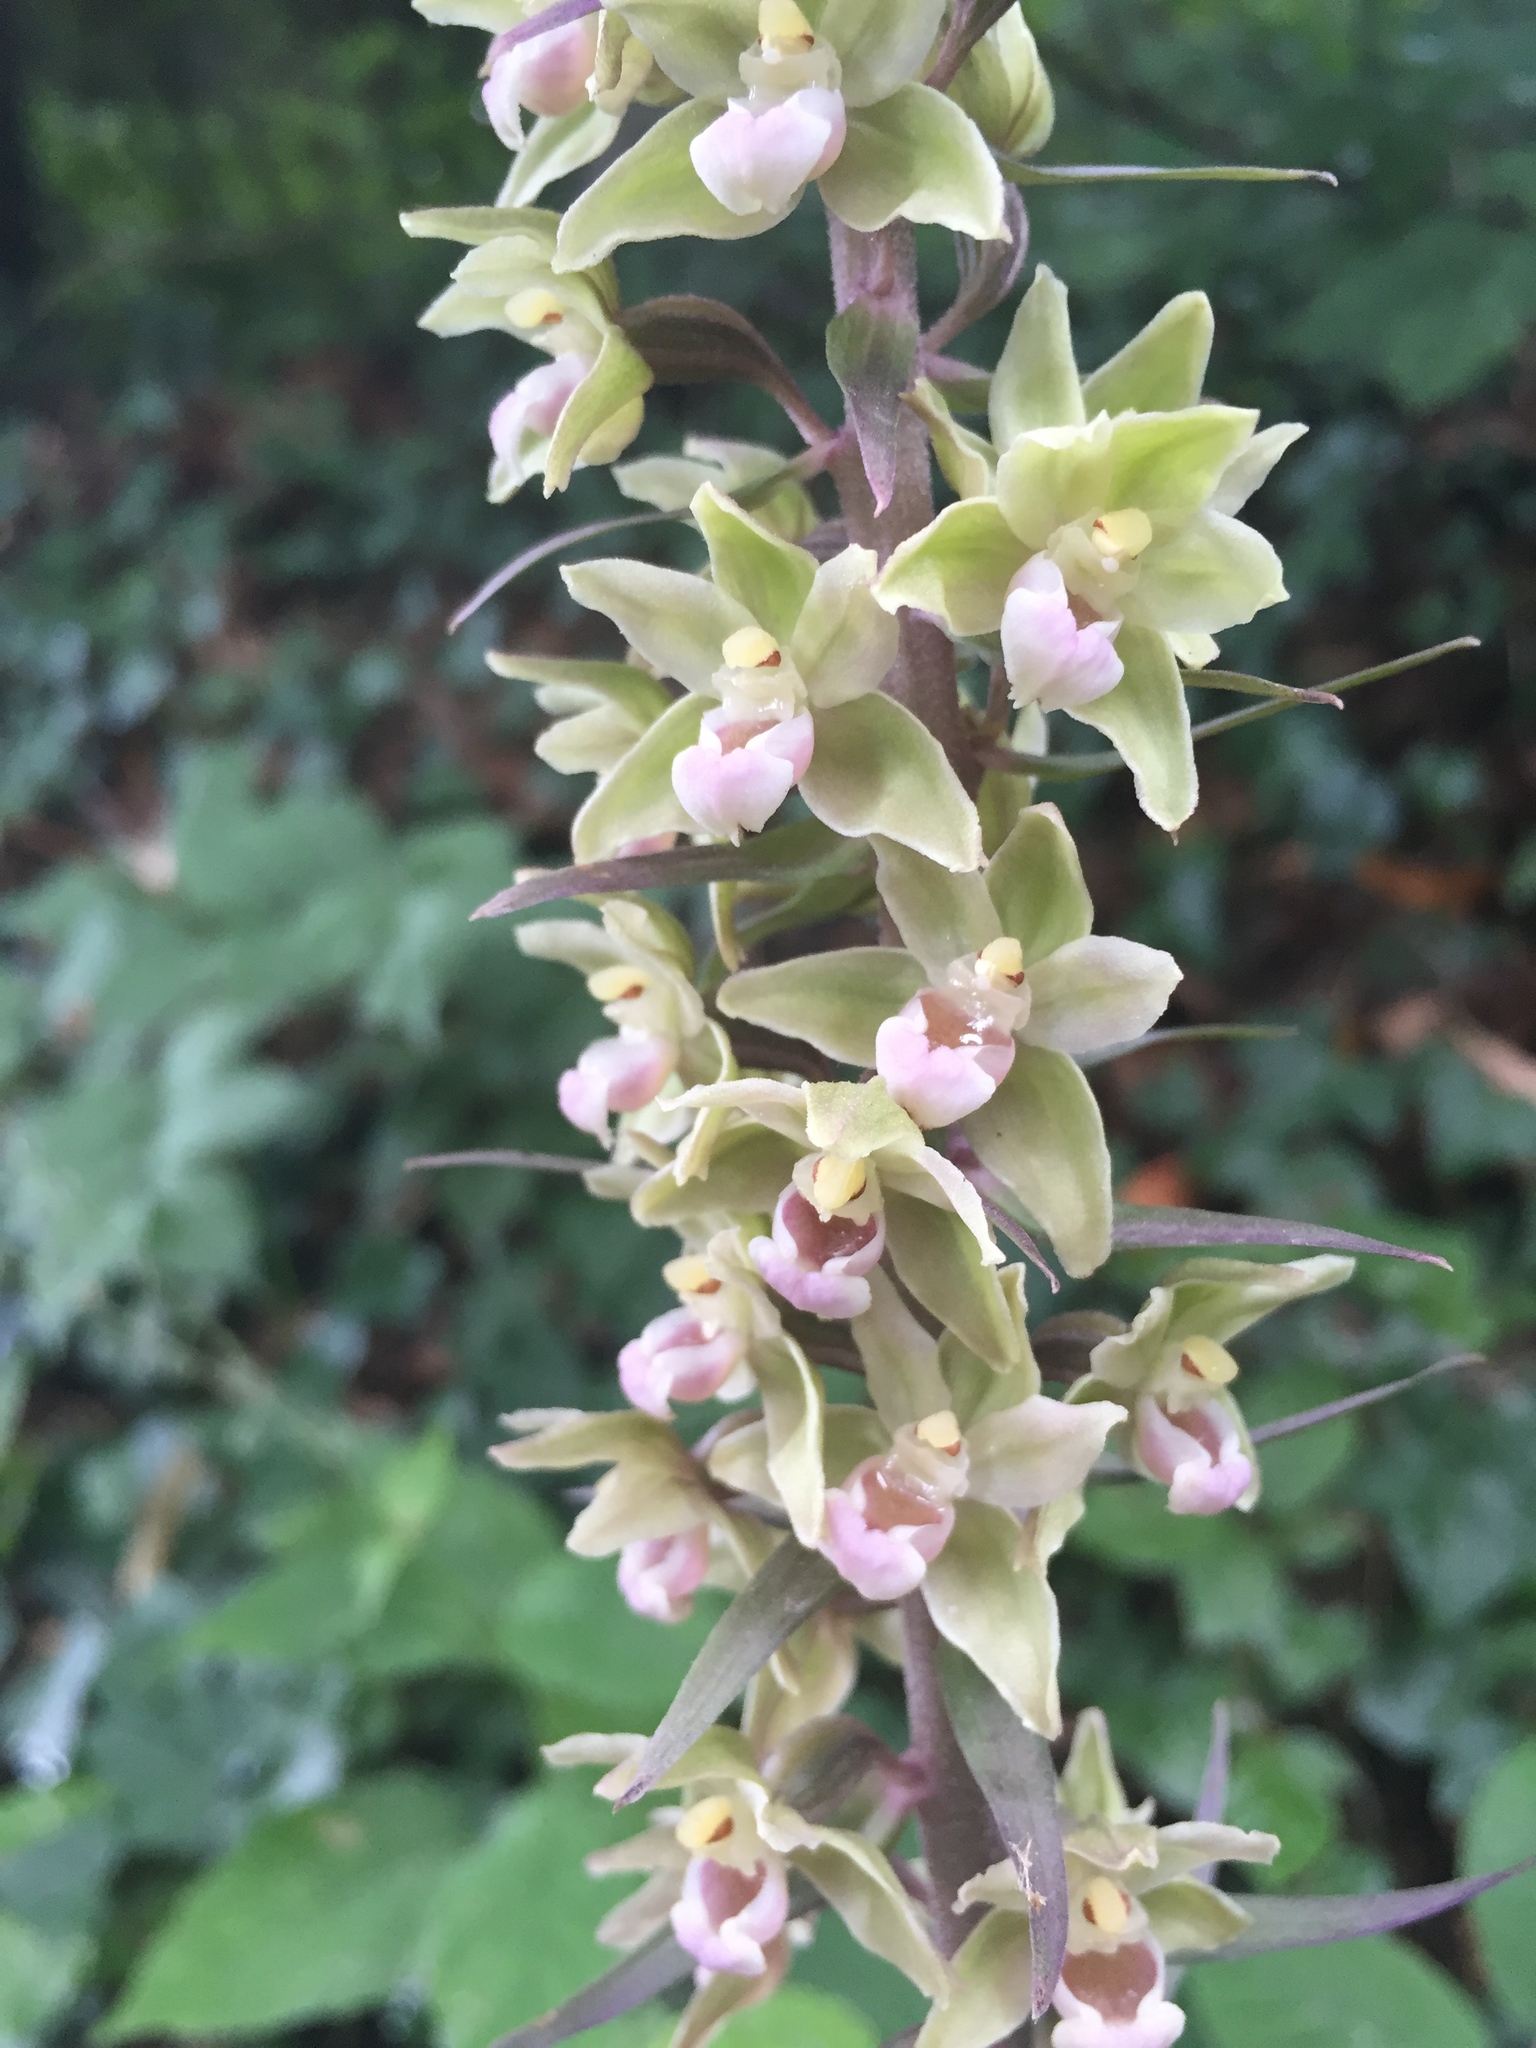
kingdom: Plantae
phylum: Tracheophyta
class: Liliopsida
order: Asparagales
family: Orchidaceae
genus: Epipactis
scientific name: Epipactis purpurata
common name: Violet helleborine
